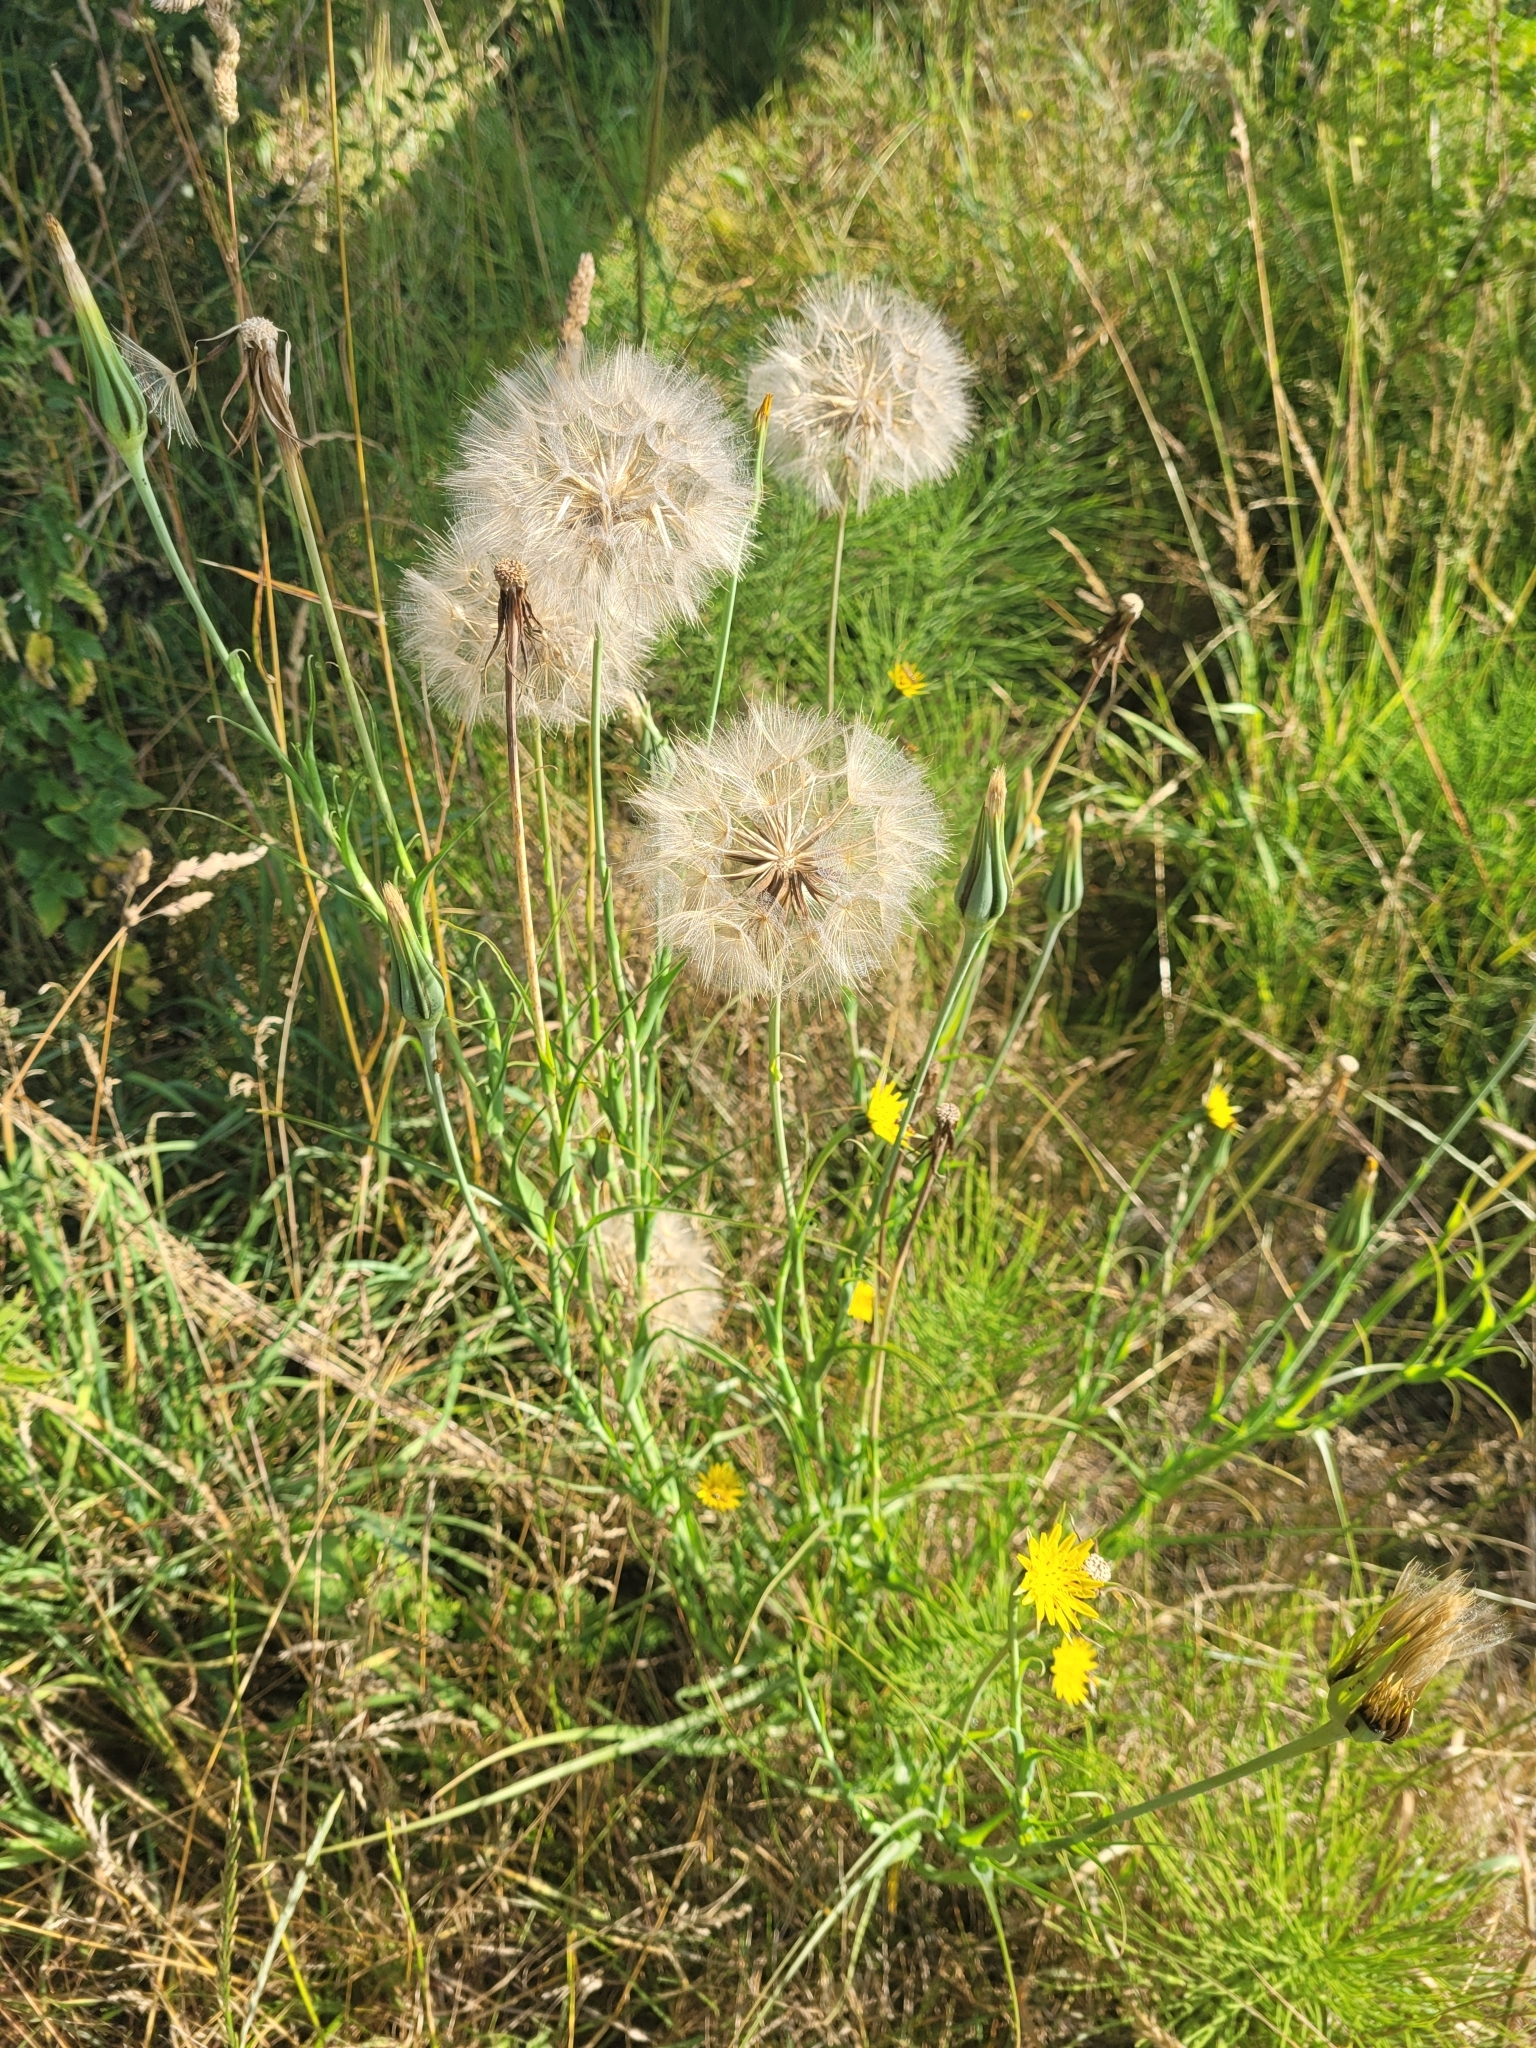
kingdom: Plantae
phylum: Tracheophyta
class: Magnoliopsida
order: Asterales
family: Asteraceae
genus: Tragopogon
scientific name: Tragopogon pratensis
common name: Goat's-beard
